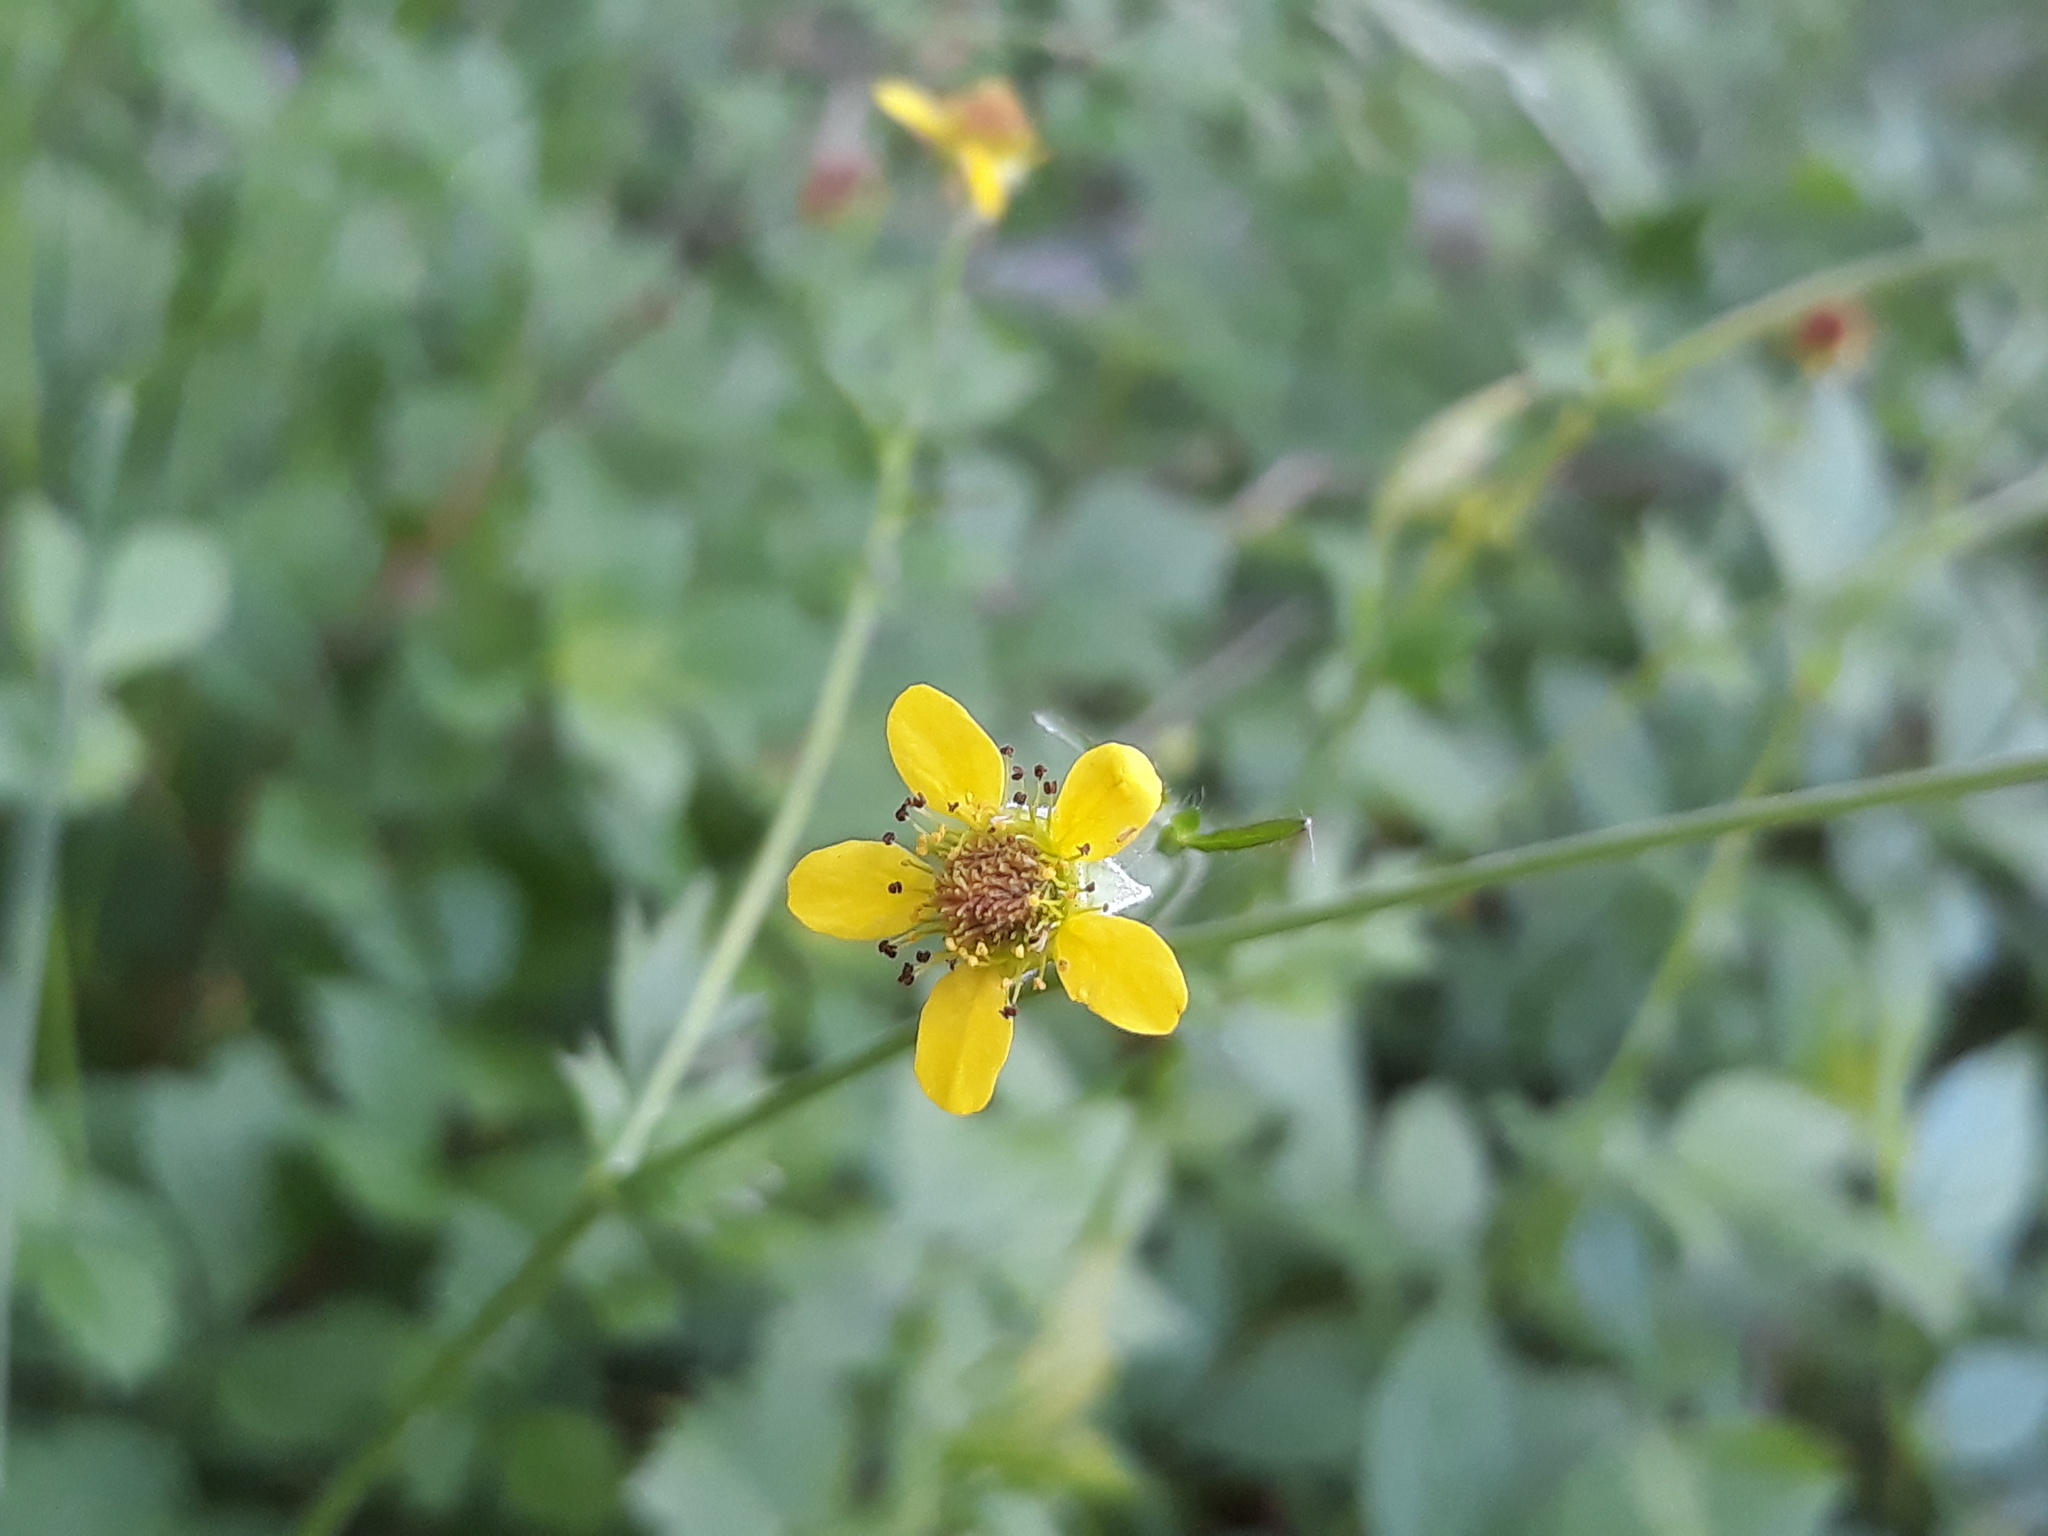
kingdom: Plantae
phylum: Tracheophyta
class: Magnoliopsida
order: Rosales
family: Rosaceae
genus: Geum
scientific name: Geum urbanum
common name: Wood avens
